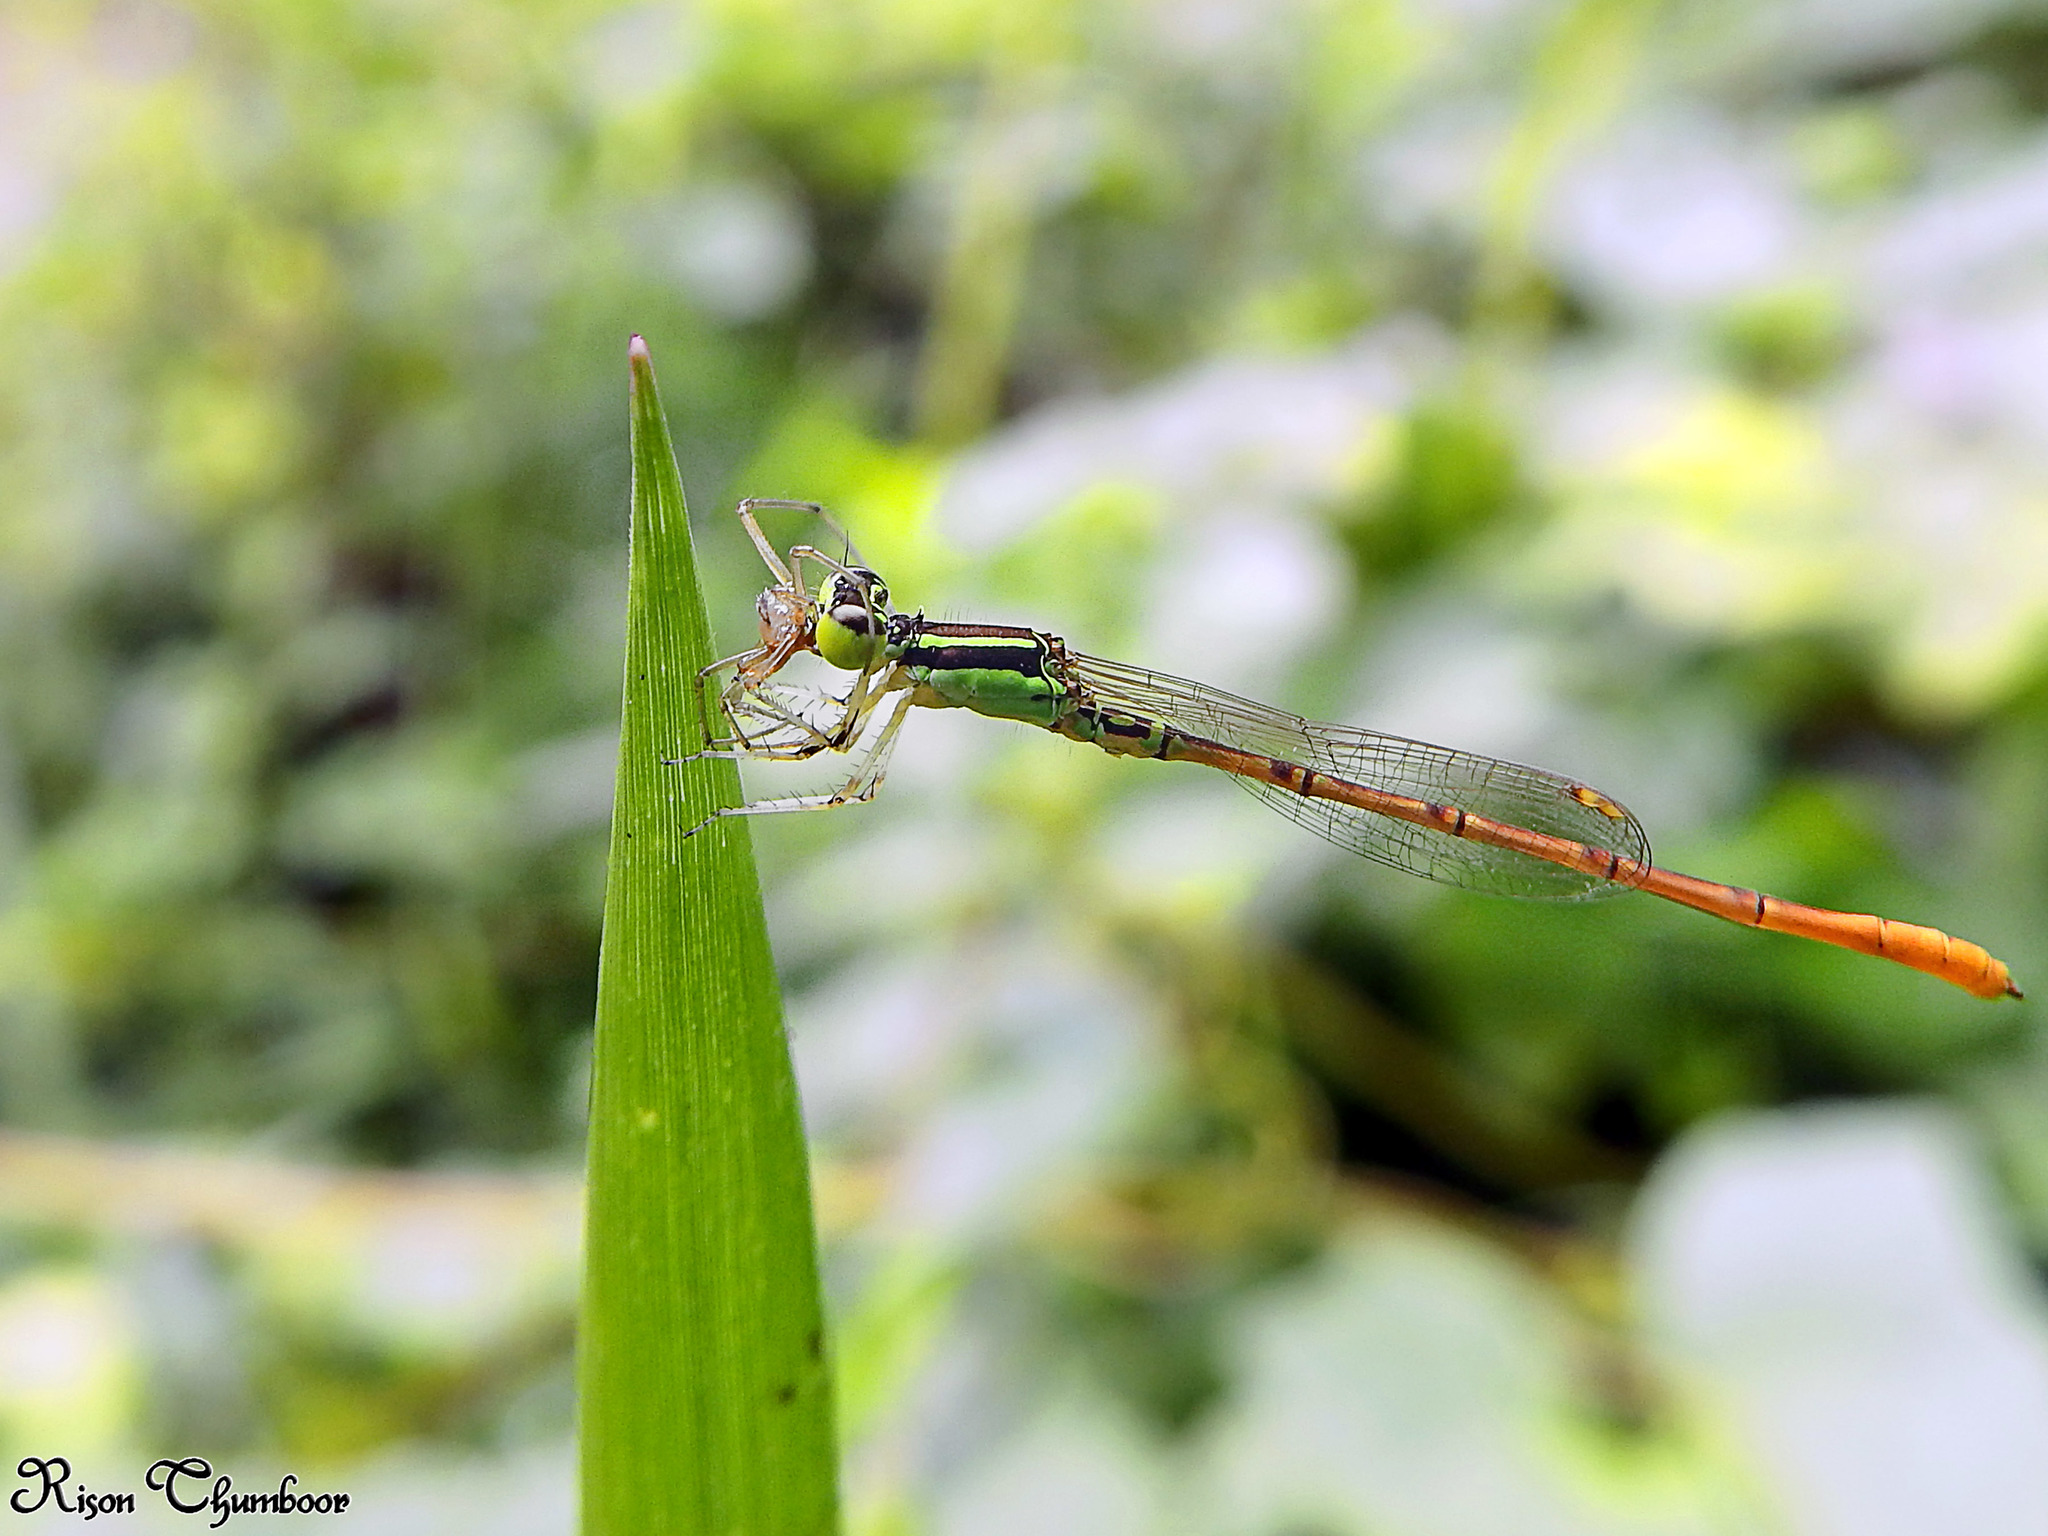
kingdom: Animalia
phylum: Arthropoda
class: Insecta
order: Odonata
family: Coenagrionidae
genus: Agriocnemis
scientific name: Agriocnemis keralensis
